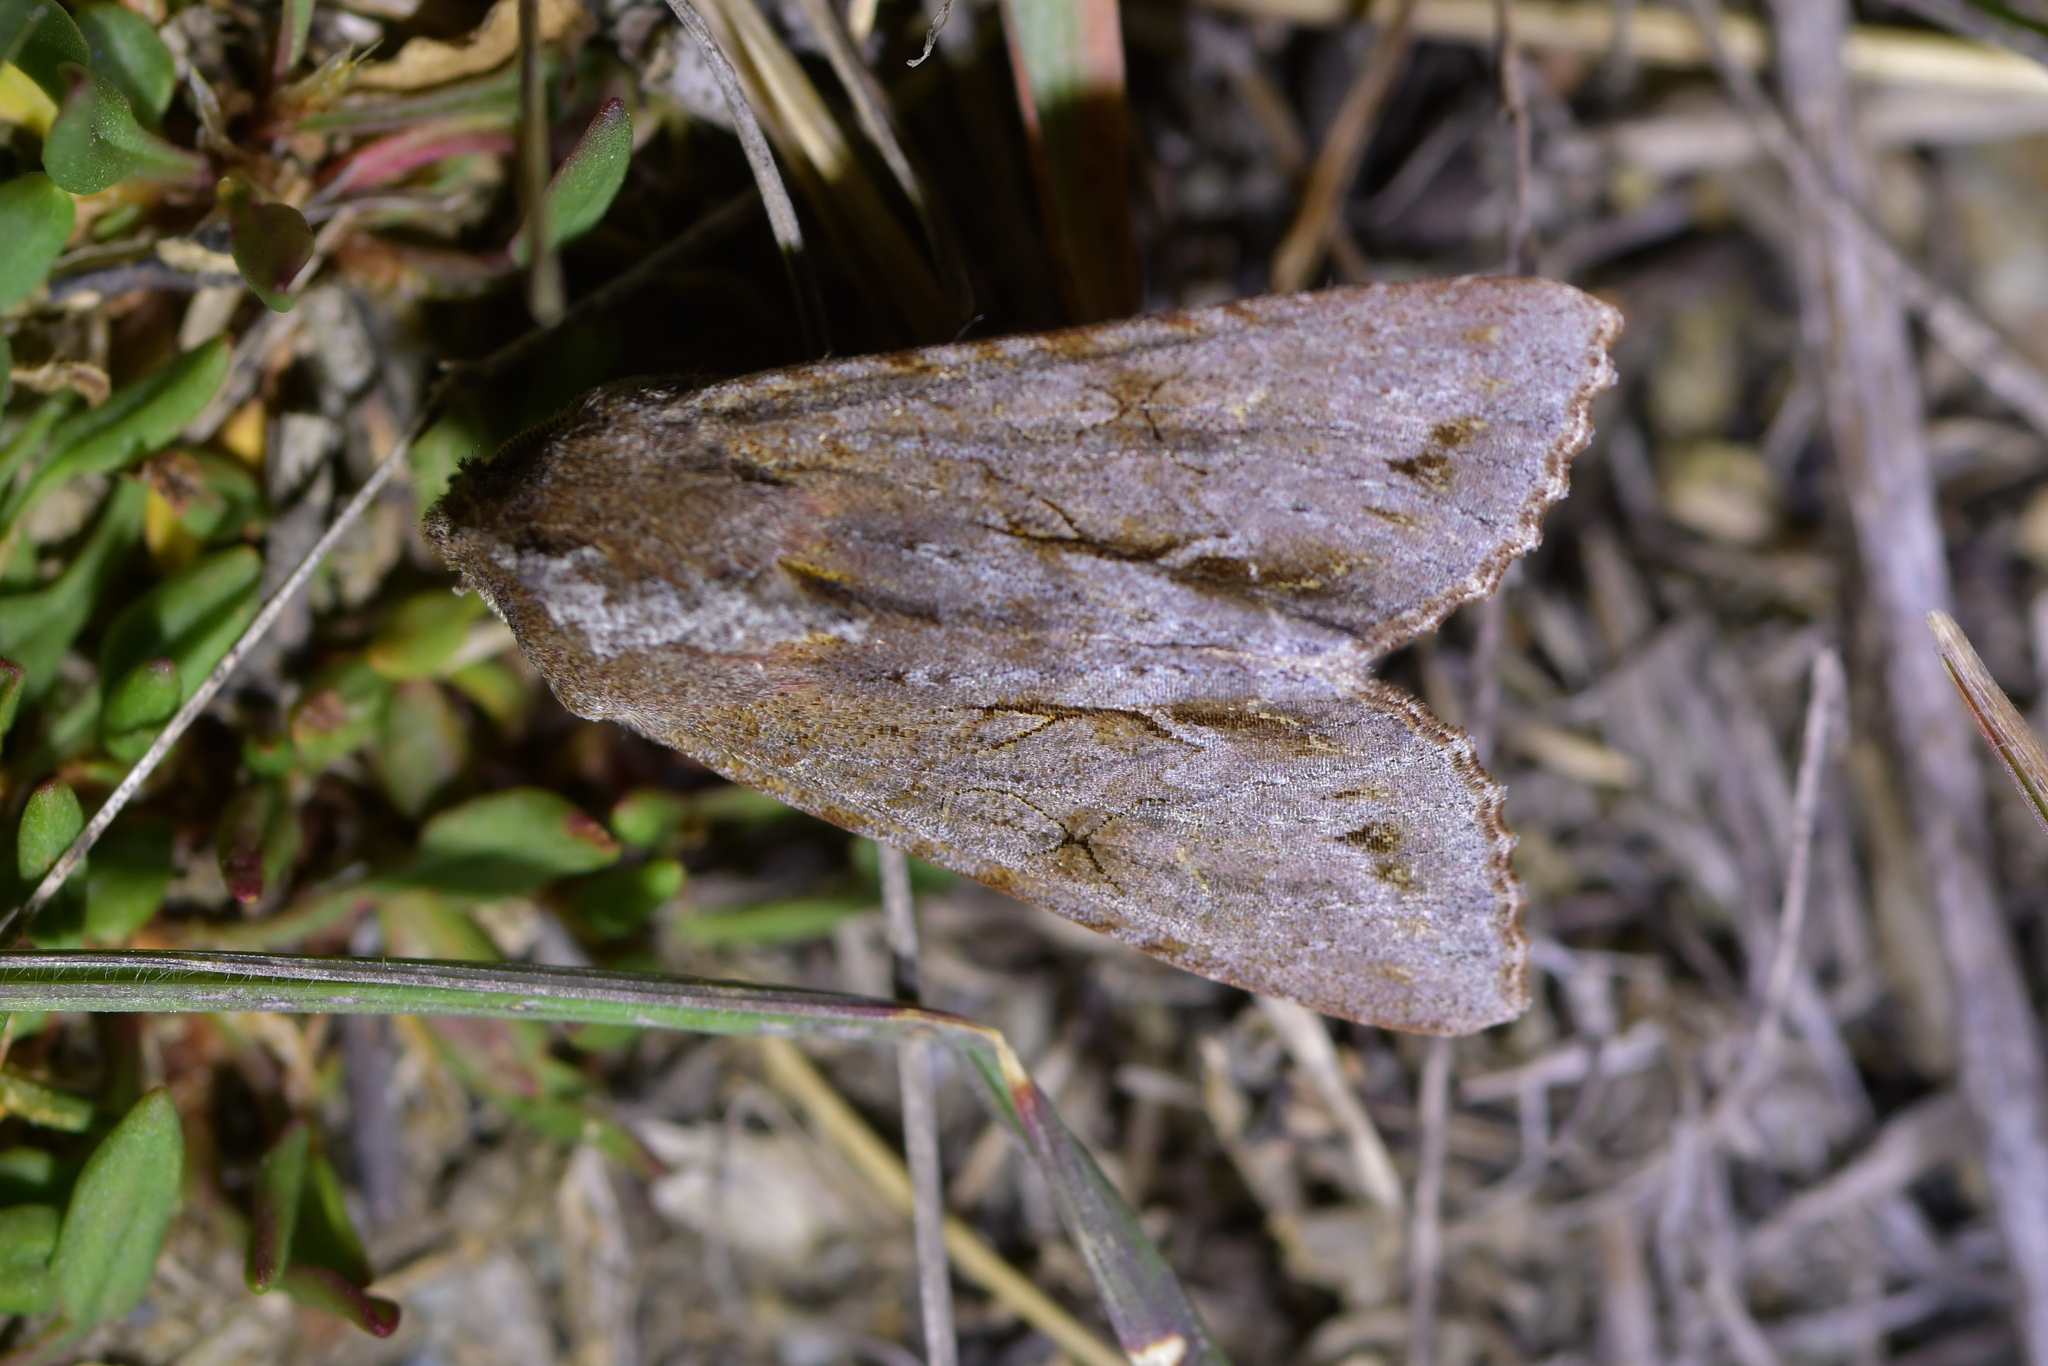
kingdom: Animalia
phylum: Arthropoda
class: Insecta
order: Lepidoptera
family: Noctuidae
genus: Ichneutica
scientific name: Ichneutica
